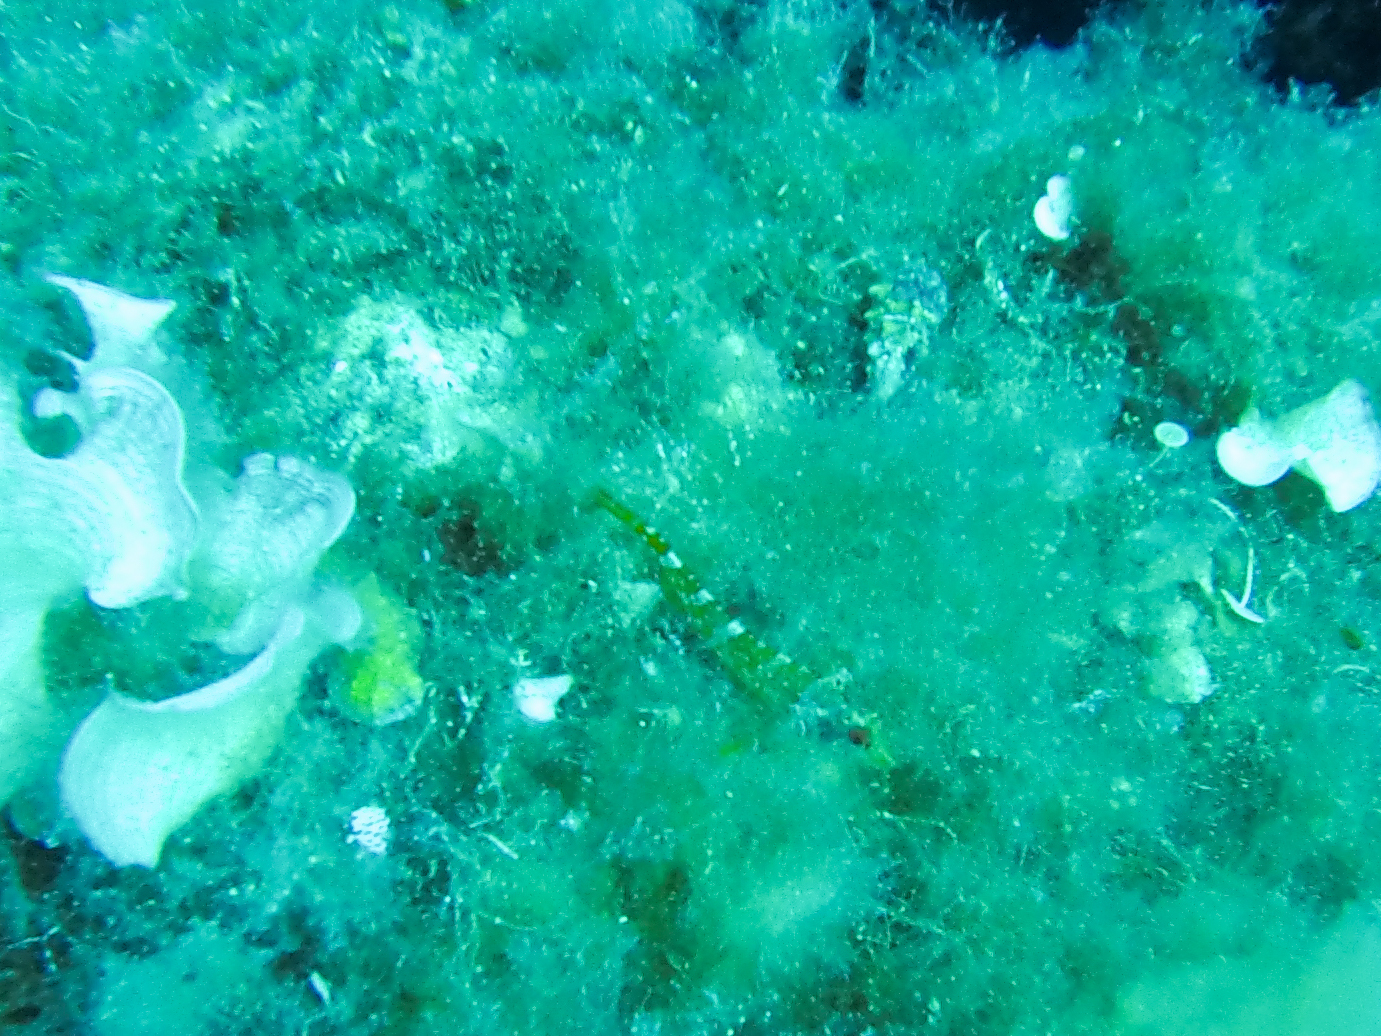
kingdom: Animalia
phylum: Chordata
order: Perciformes
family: Tripterygiidae
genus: Tripterygion
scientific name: Tripterygion delaisi
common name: Black-face blenny
